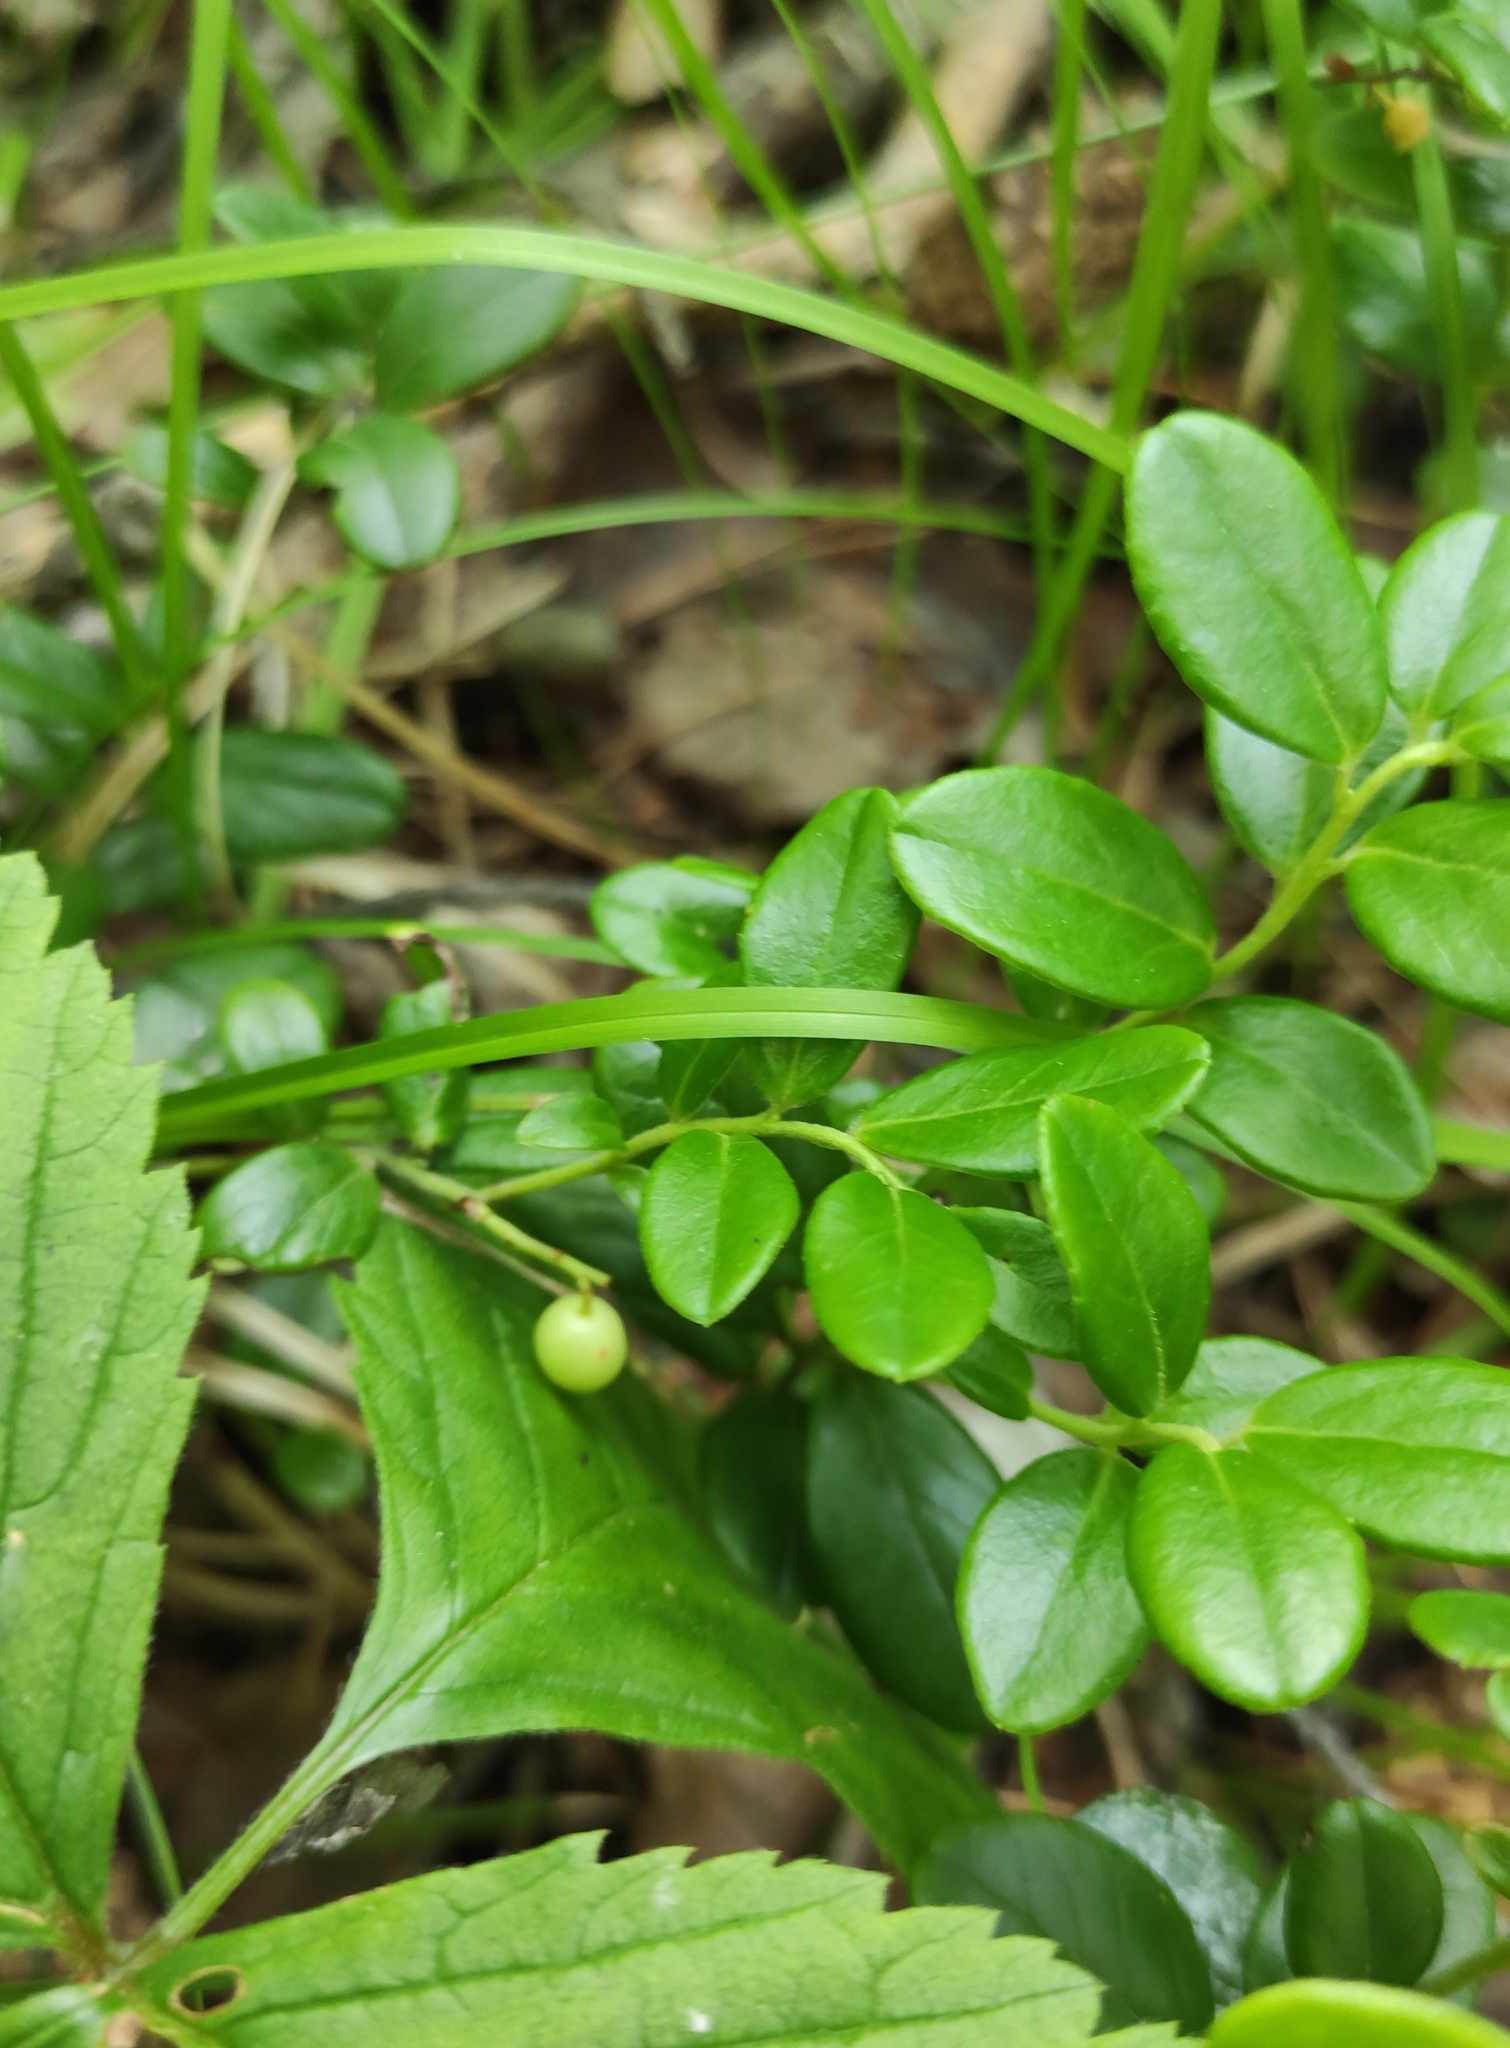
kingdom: Plantae
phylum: Tracheophyta
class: Magnoliopsida
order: Ericales
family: Ericaceae
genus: Vaccinium
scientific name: Vaccinium vitis-idaea
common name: Cowberry
